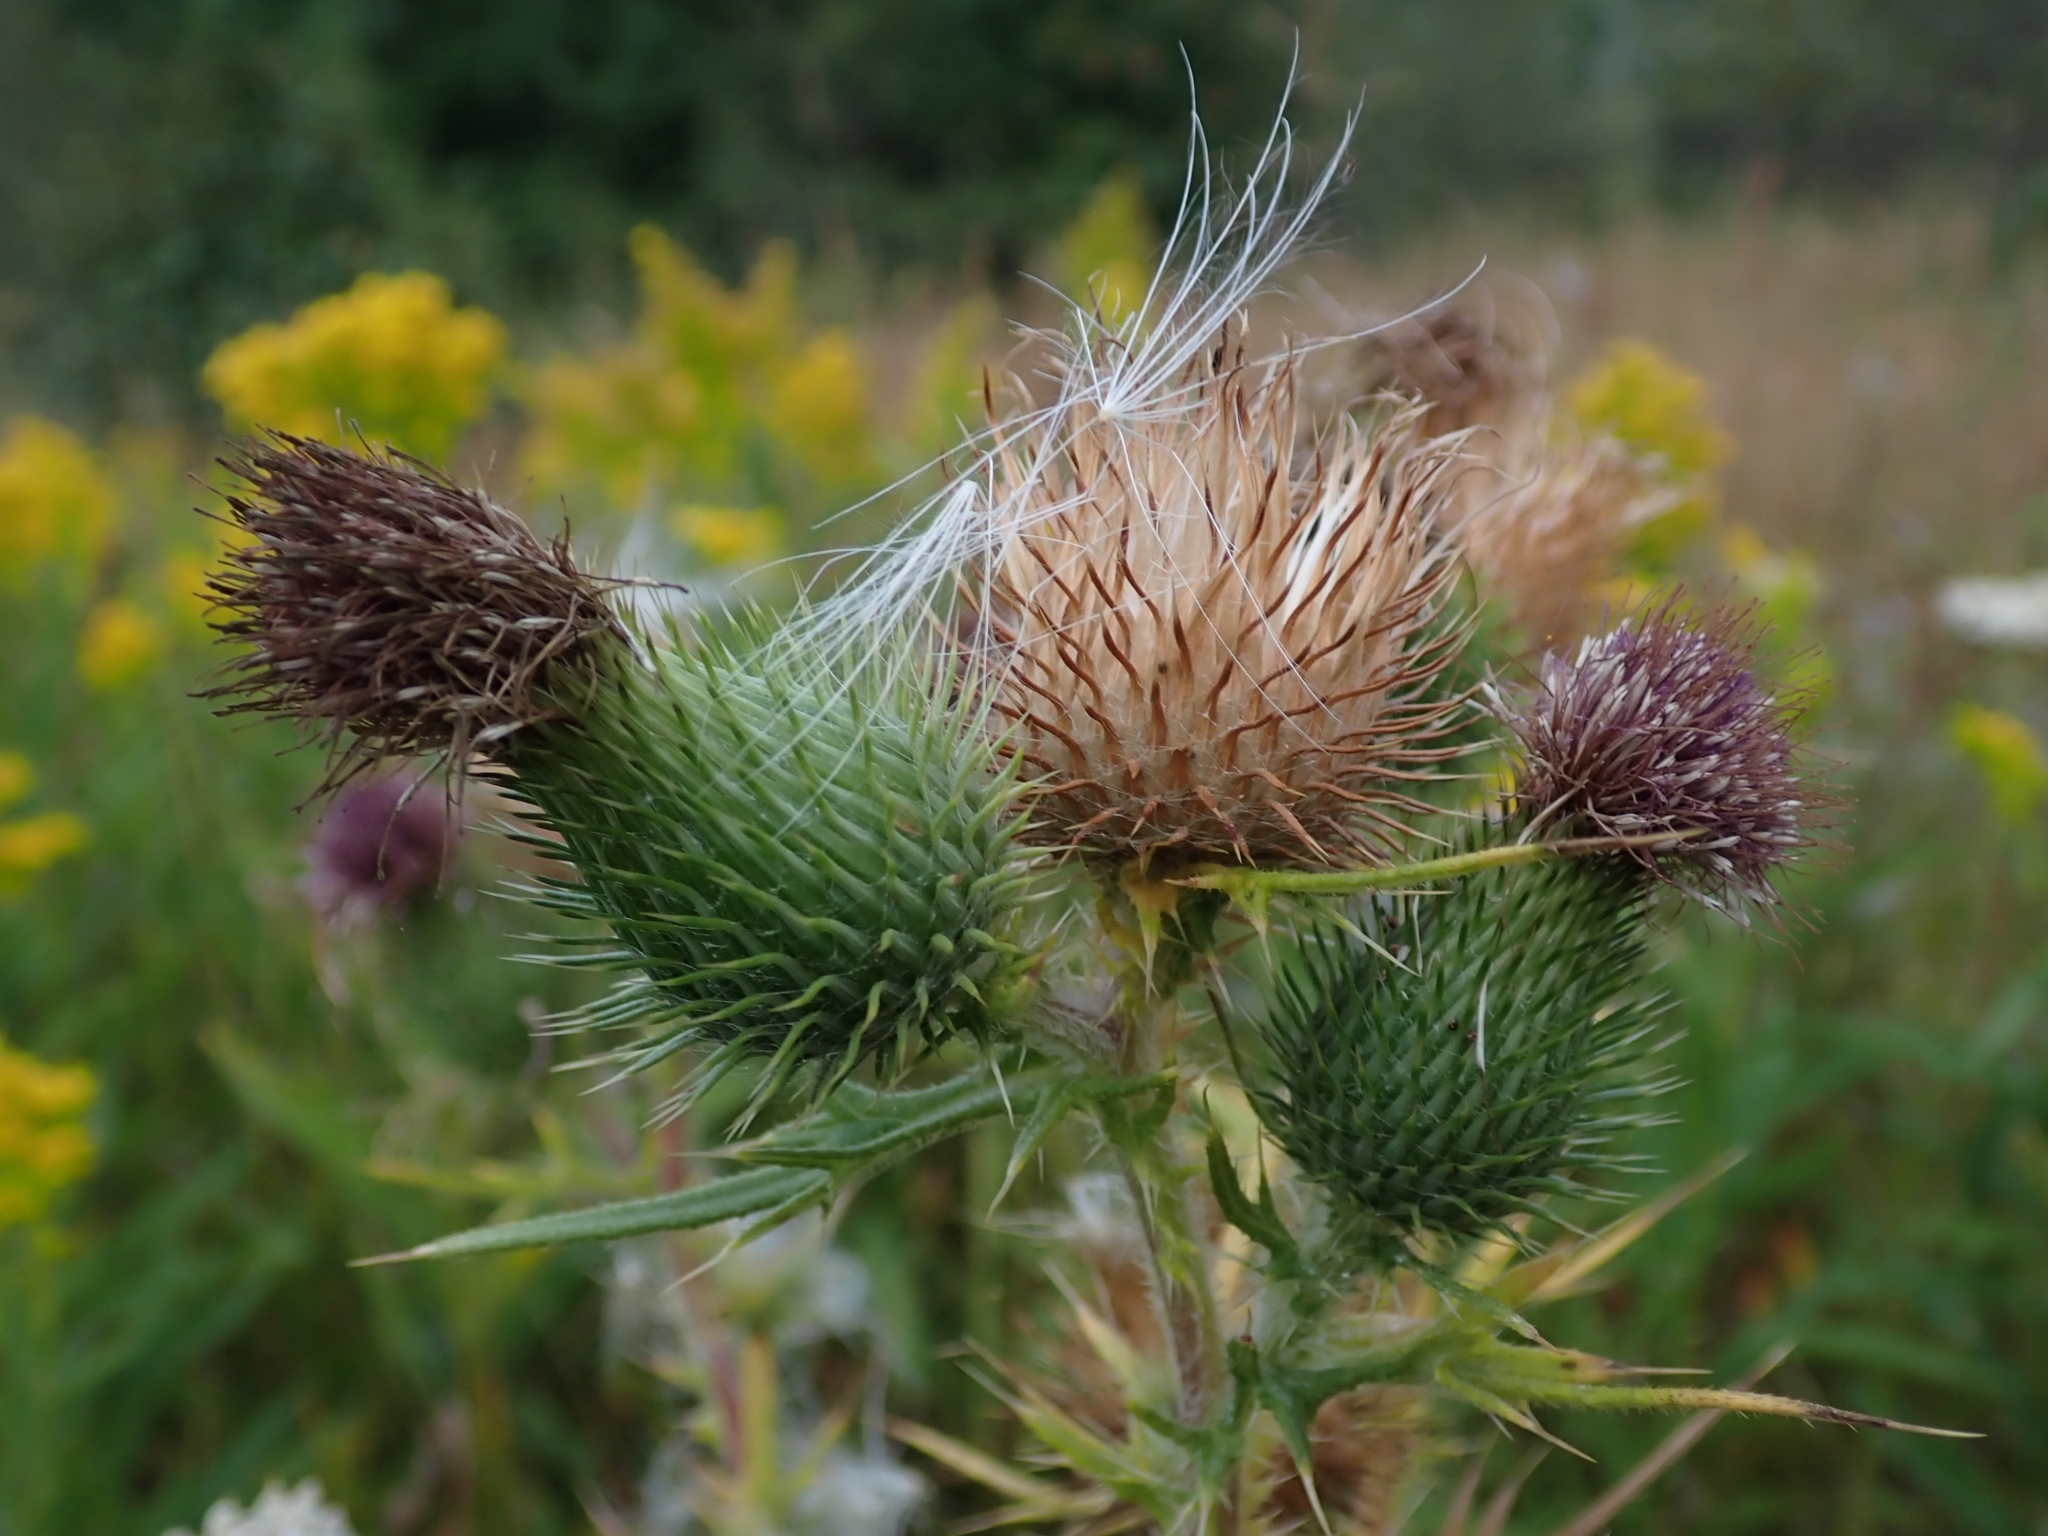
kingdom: Plantae
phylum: Tracheophyta
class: Magnoliopsida
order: Asterales
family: Asteraceae
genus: Cirsium
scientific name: Cirsium vulgare
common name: Bull thistle
